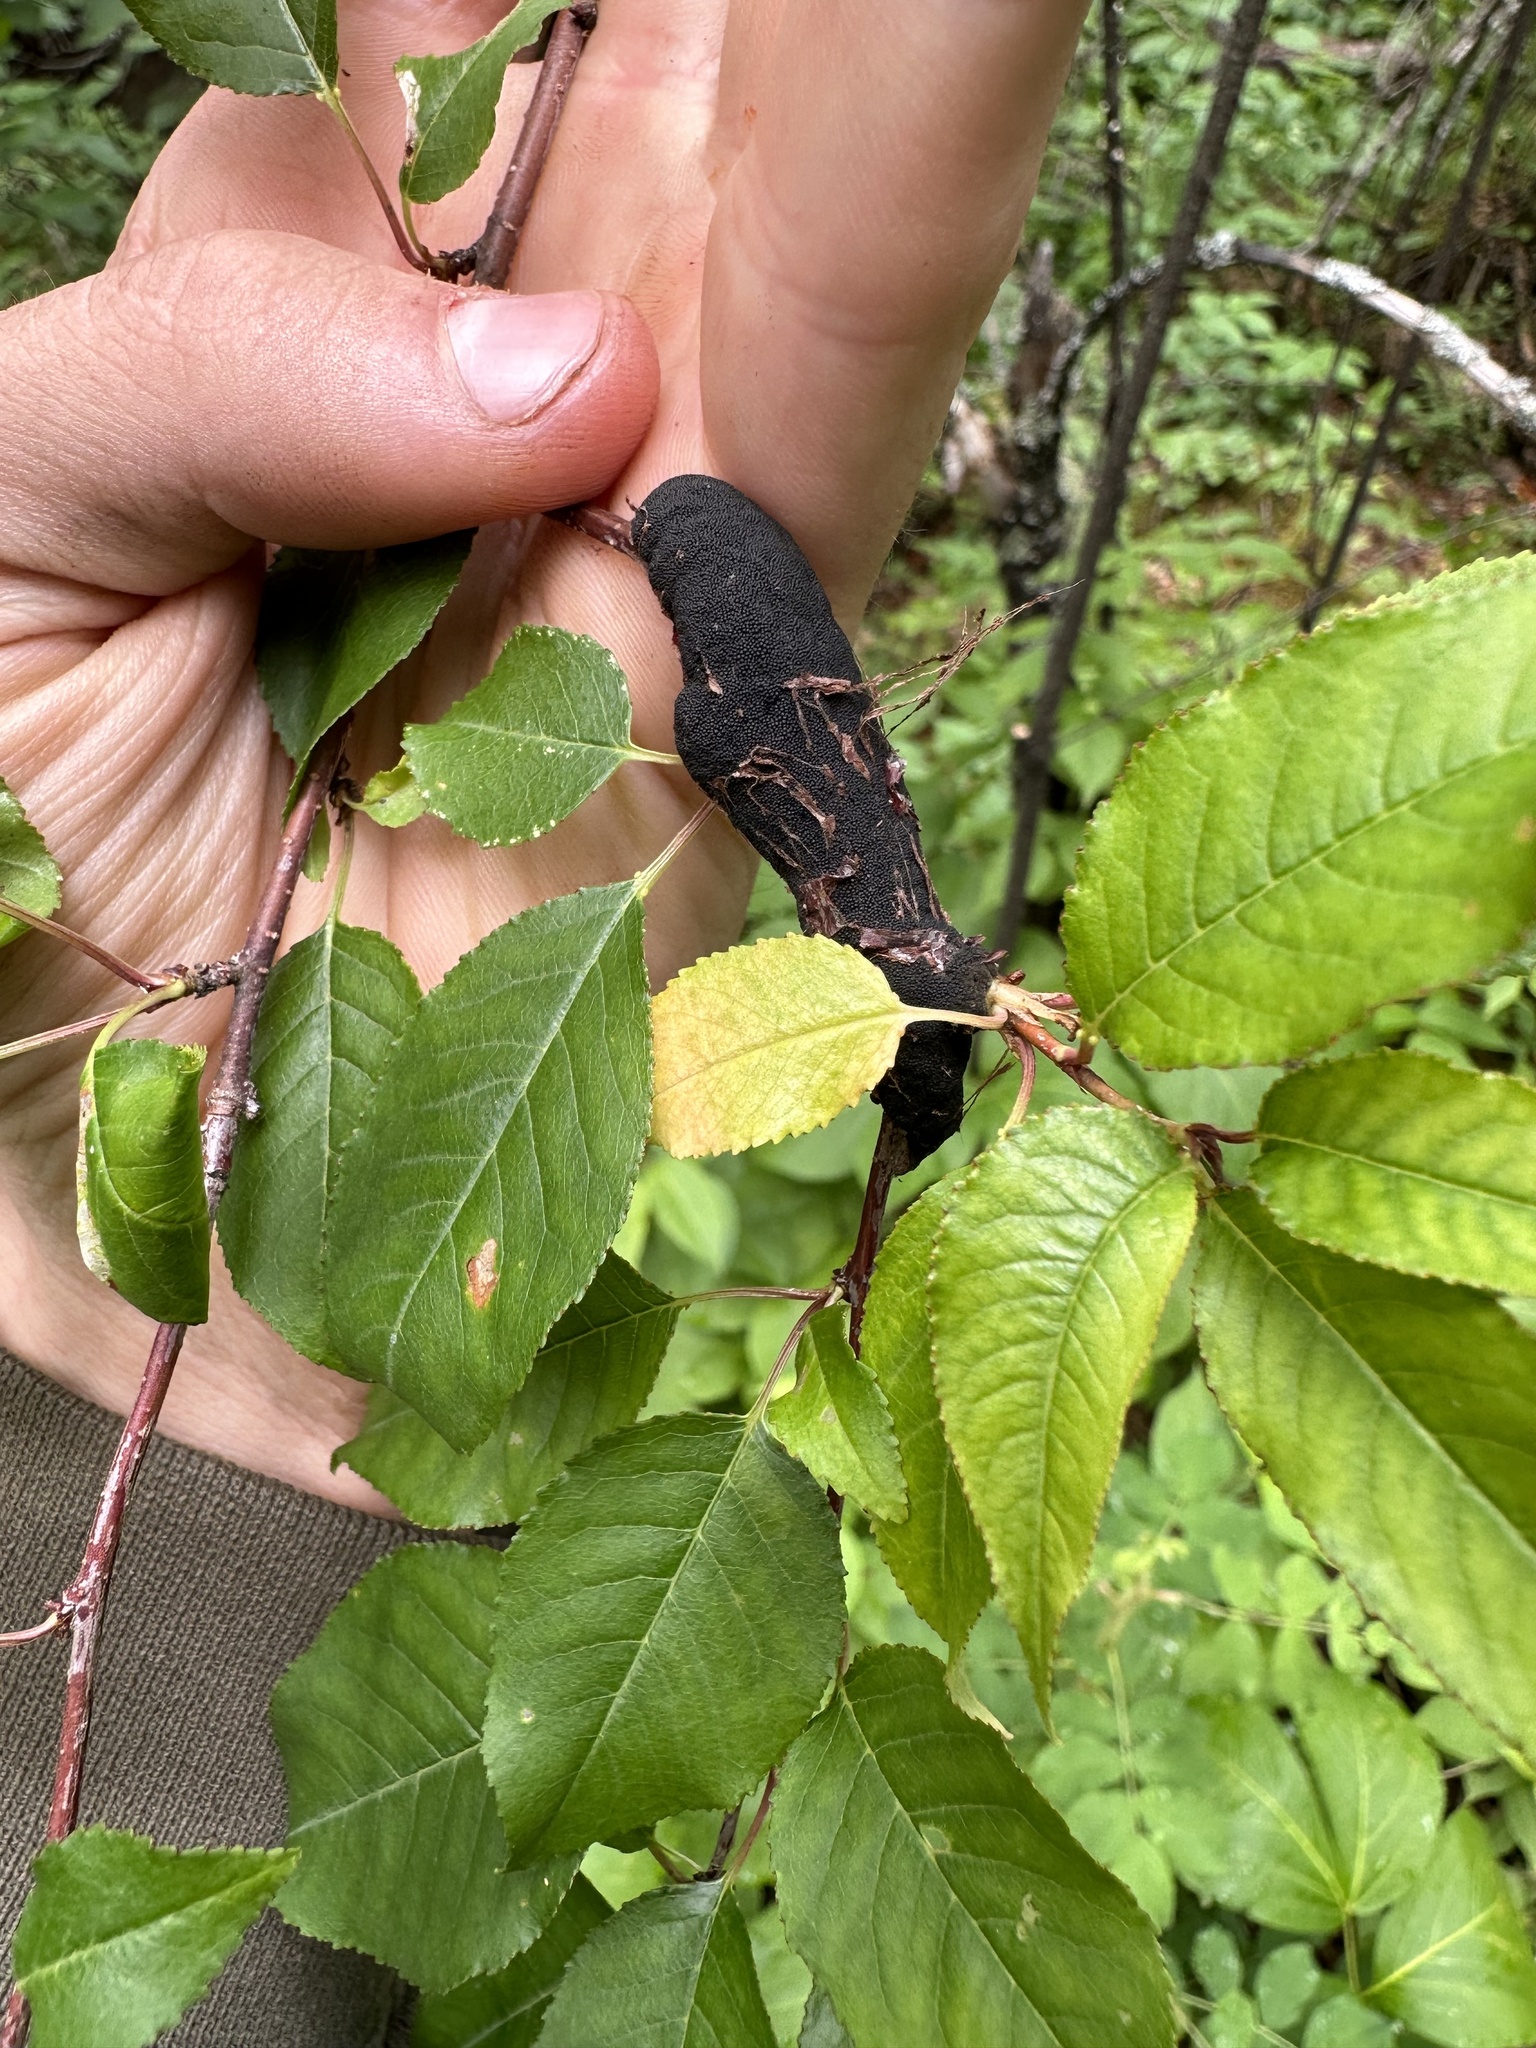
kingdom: Fungi
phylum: Ascomycota
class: Dothideomycetes
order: Venturiales
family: Venturiaceae
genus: Apiosporina
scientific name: Apiosporina morbosa
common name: Black knot
